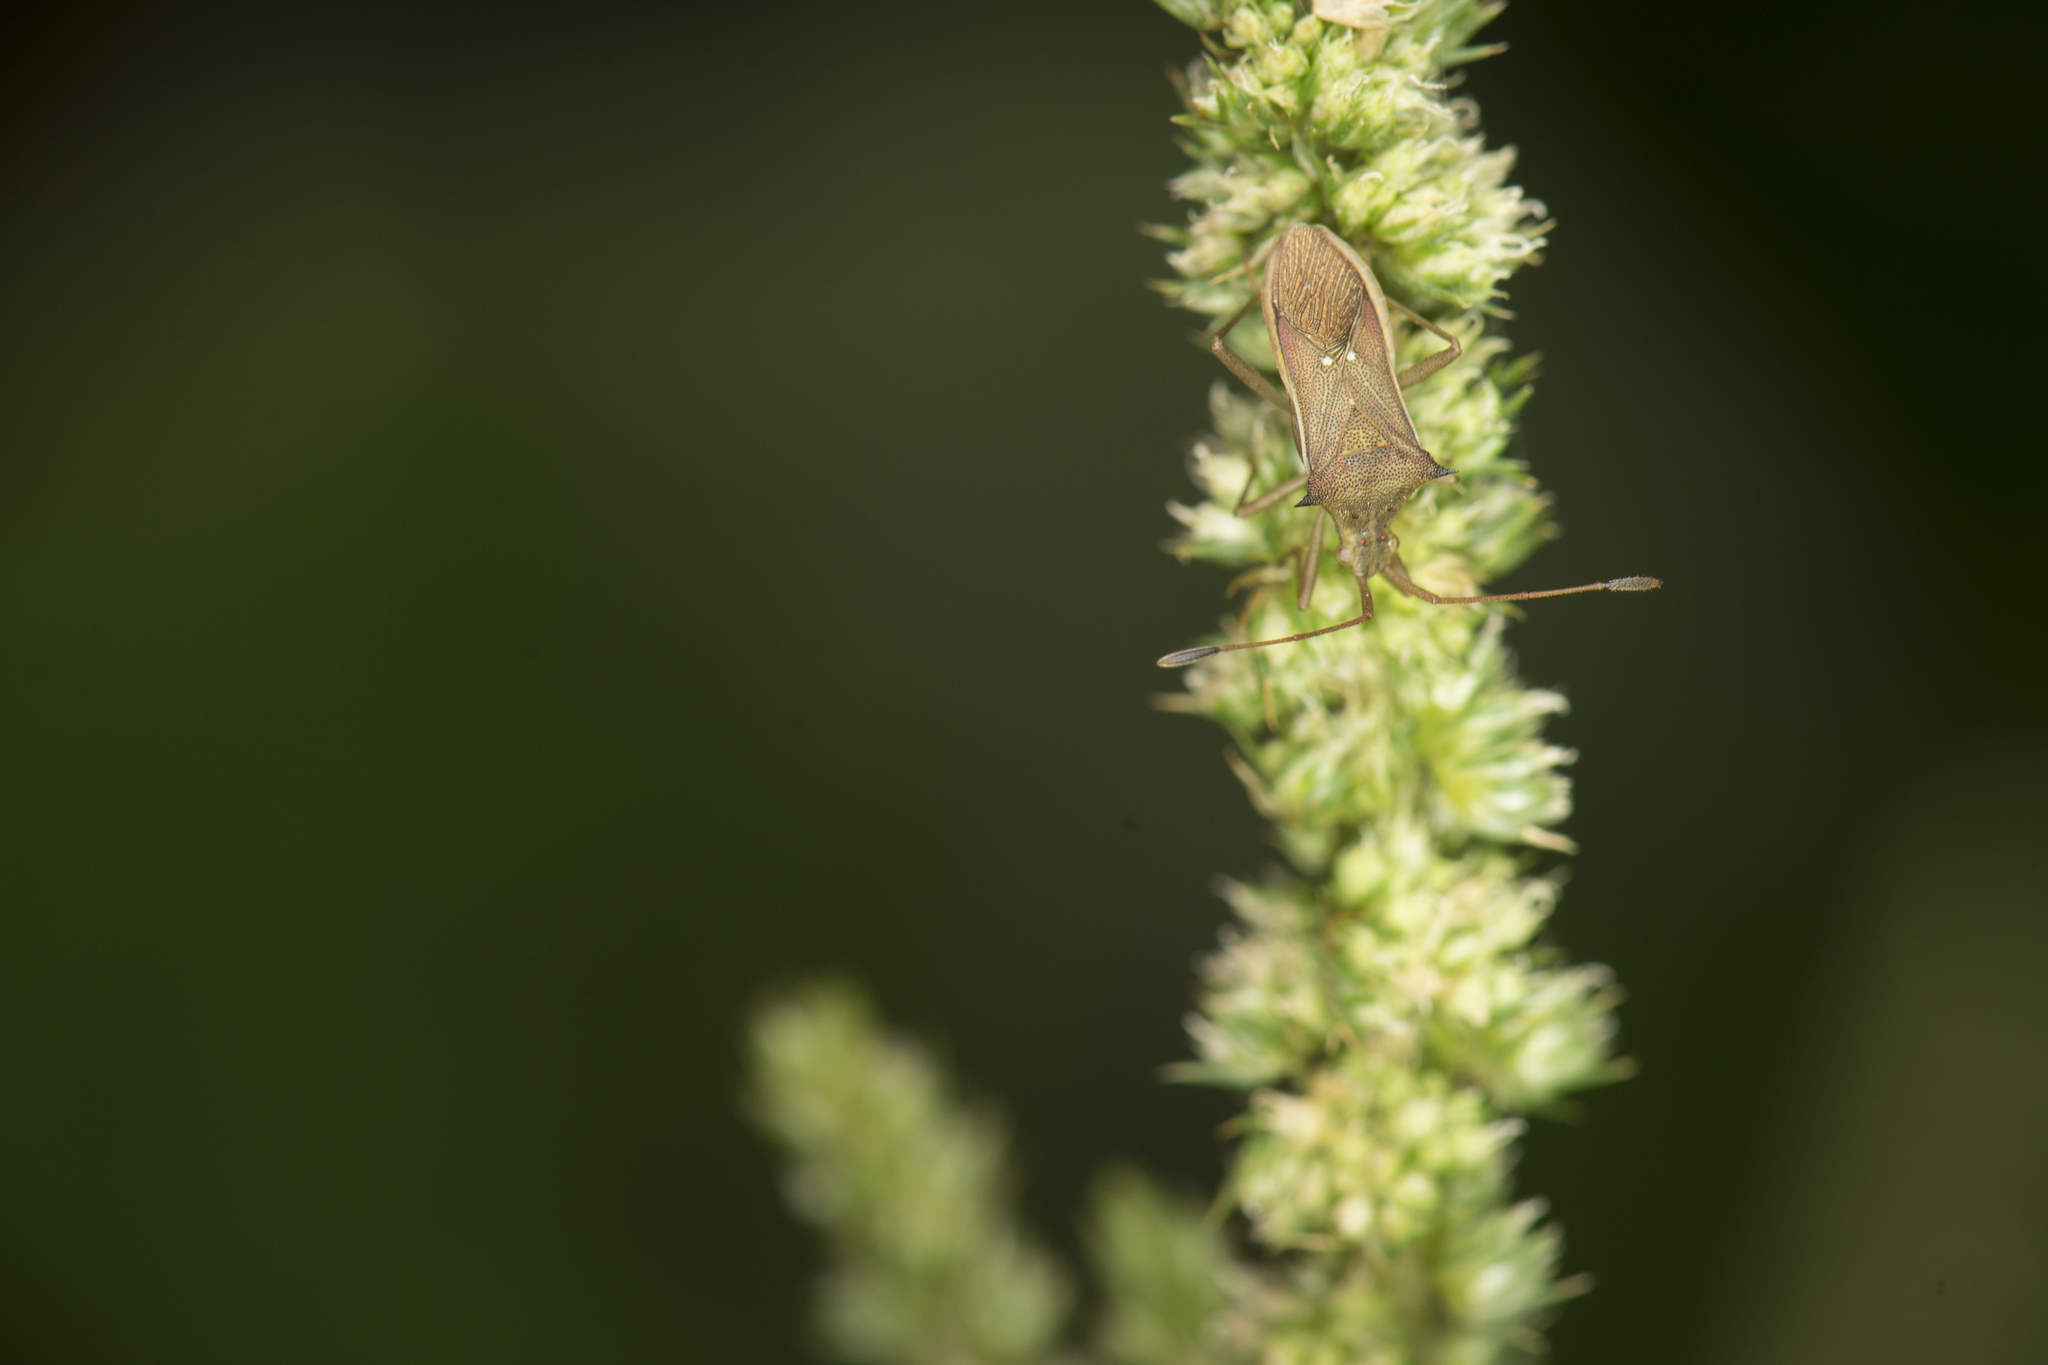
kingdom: Animalia
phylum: Arthropoda
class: Insecta
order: Hemiptera
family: Coreidae
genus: Cletus
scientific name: Cletus trigonus
